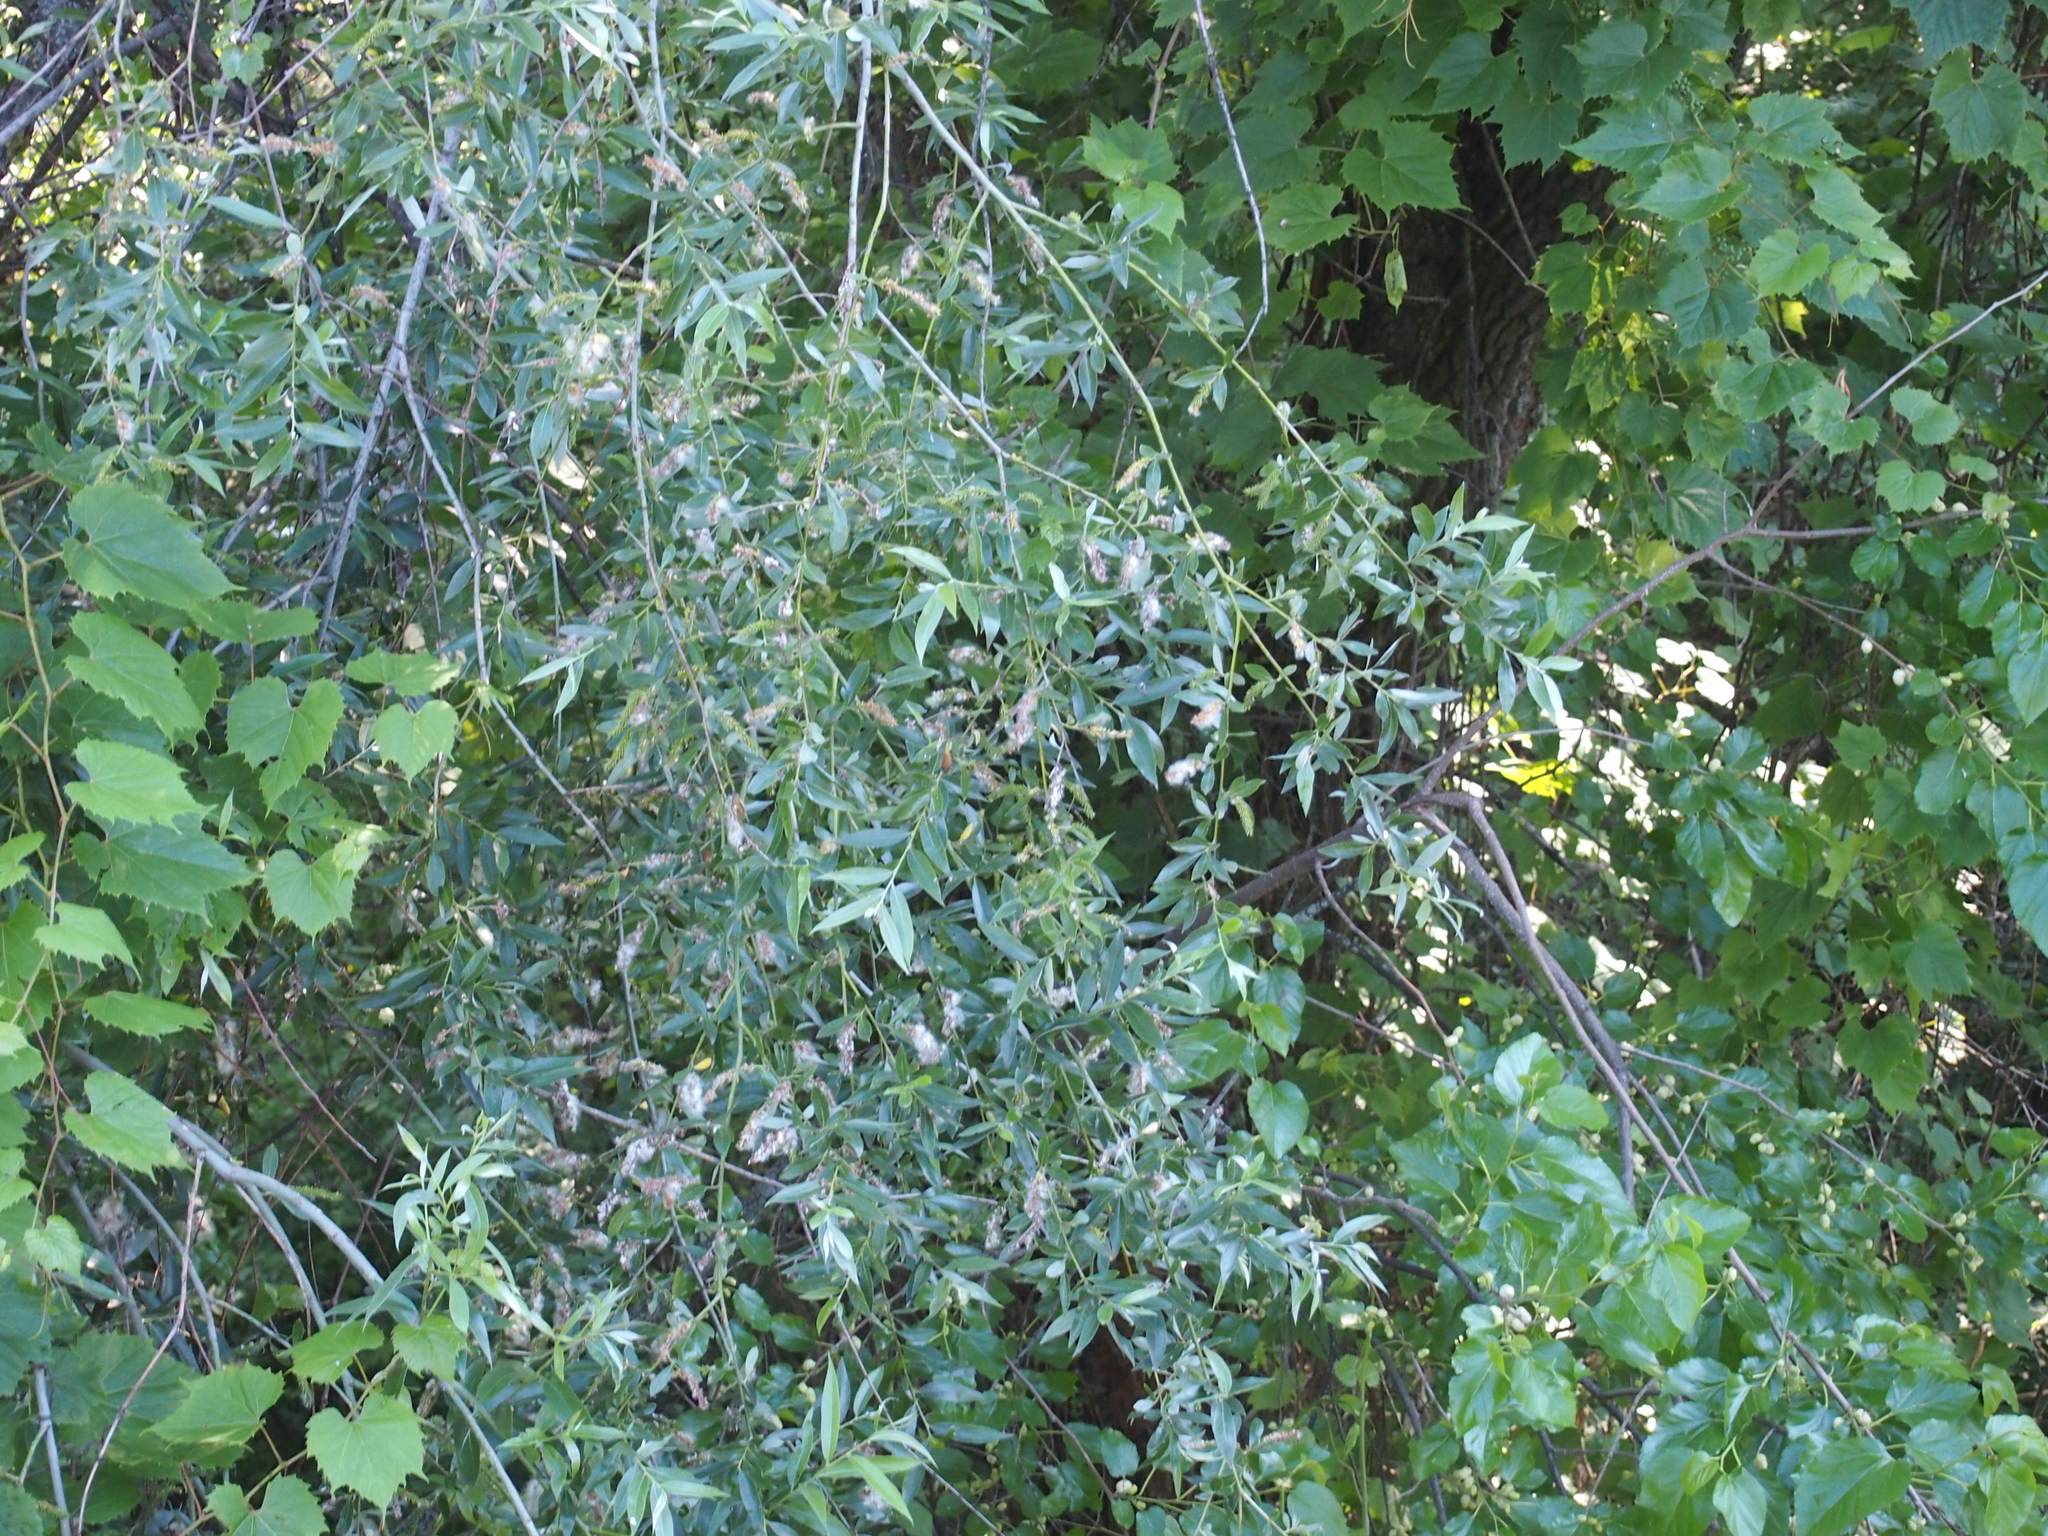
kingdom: Plantae
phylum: Tracheophyta
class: Magnoliopsida
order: Malpighiales
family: Salicaceae
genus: Salix
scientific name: Salix alba
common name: White willow
